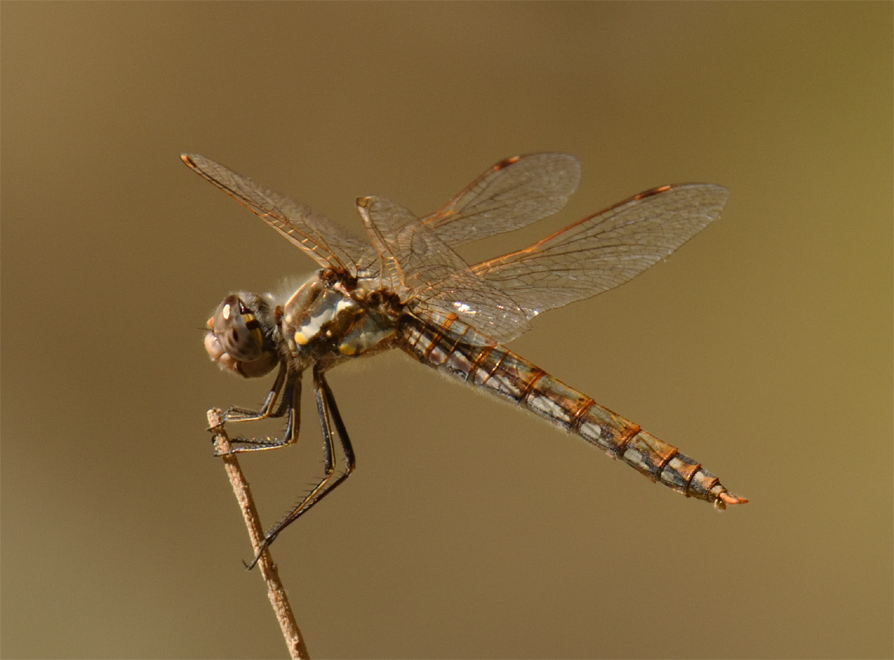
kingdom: Animalia
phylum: Arthropoda
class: Insecta
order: Odonata
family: Libellulidae
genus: Sympetrum
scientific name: Sympetrum corruptum
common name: Variegated meadowhawk
